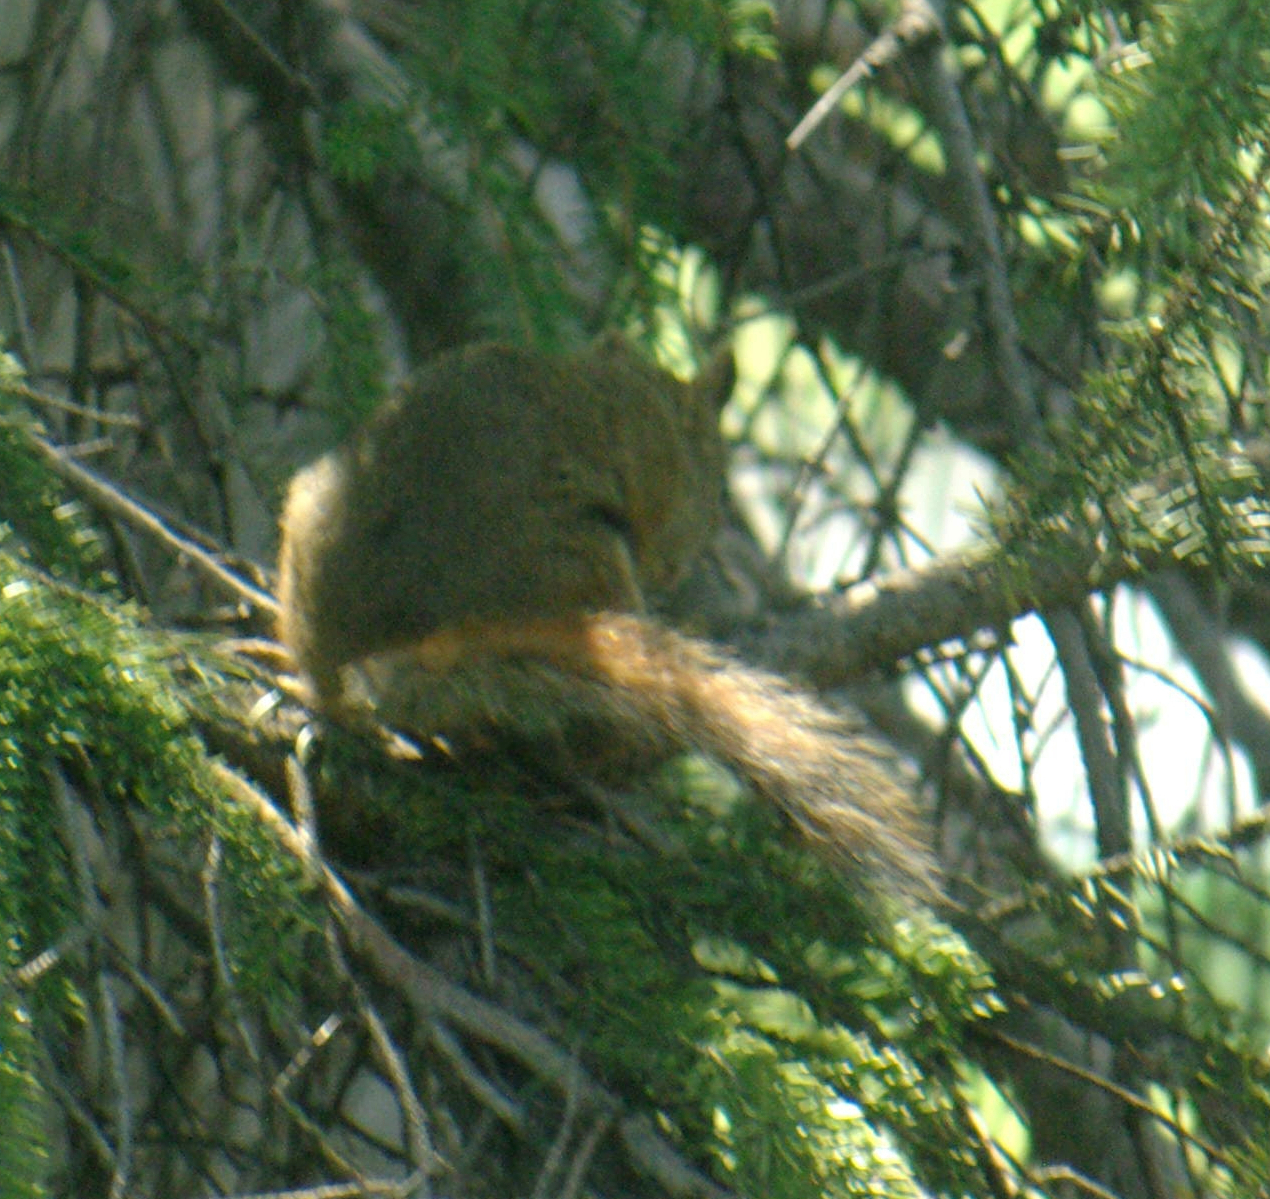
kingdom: Animalia
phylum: Chordata
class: Mammalia
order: Rodentia
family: Sciuridae
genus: Tamiasciurus
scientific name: Tamiasciurus hudsonicus
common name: Red squirrel
